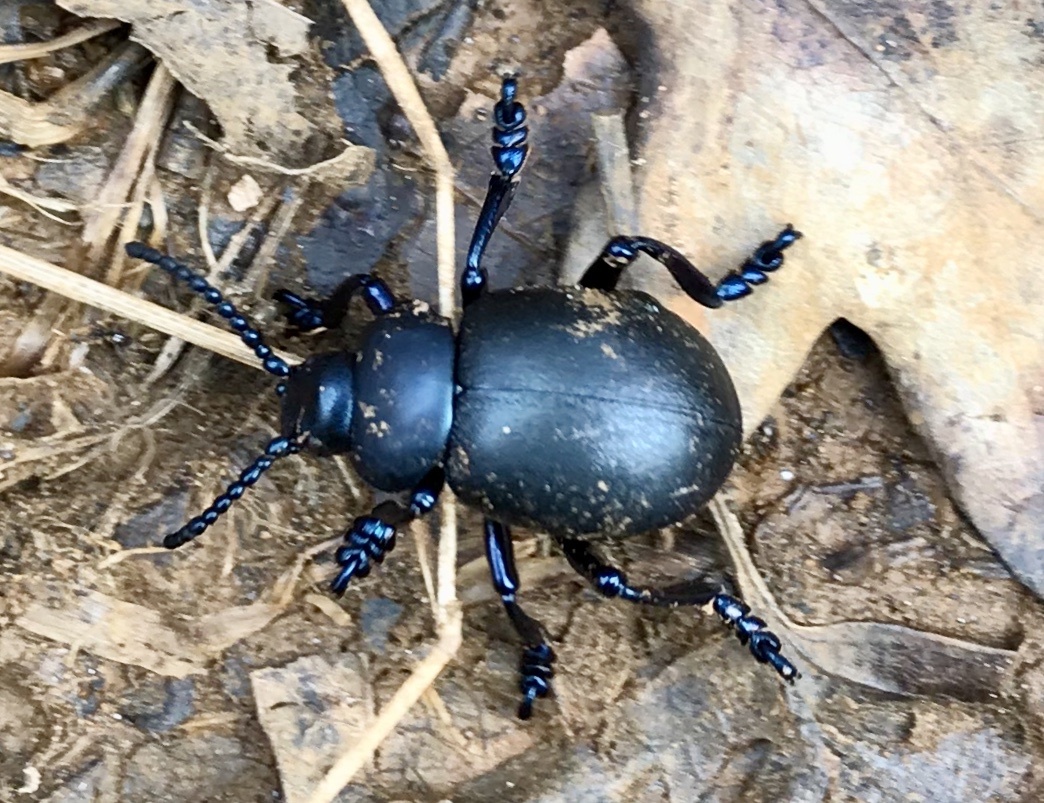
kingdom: Animalia
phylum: Arthropoda
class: Insecta
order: Coleoptera
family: Chrysomelidae
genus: Timarcha
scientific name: Timarcha tenebricosa
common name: Bloody-nosed beetle
